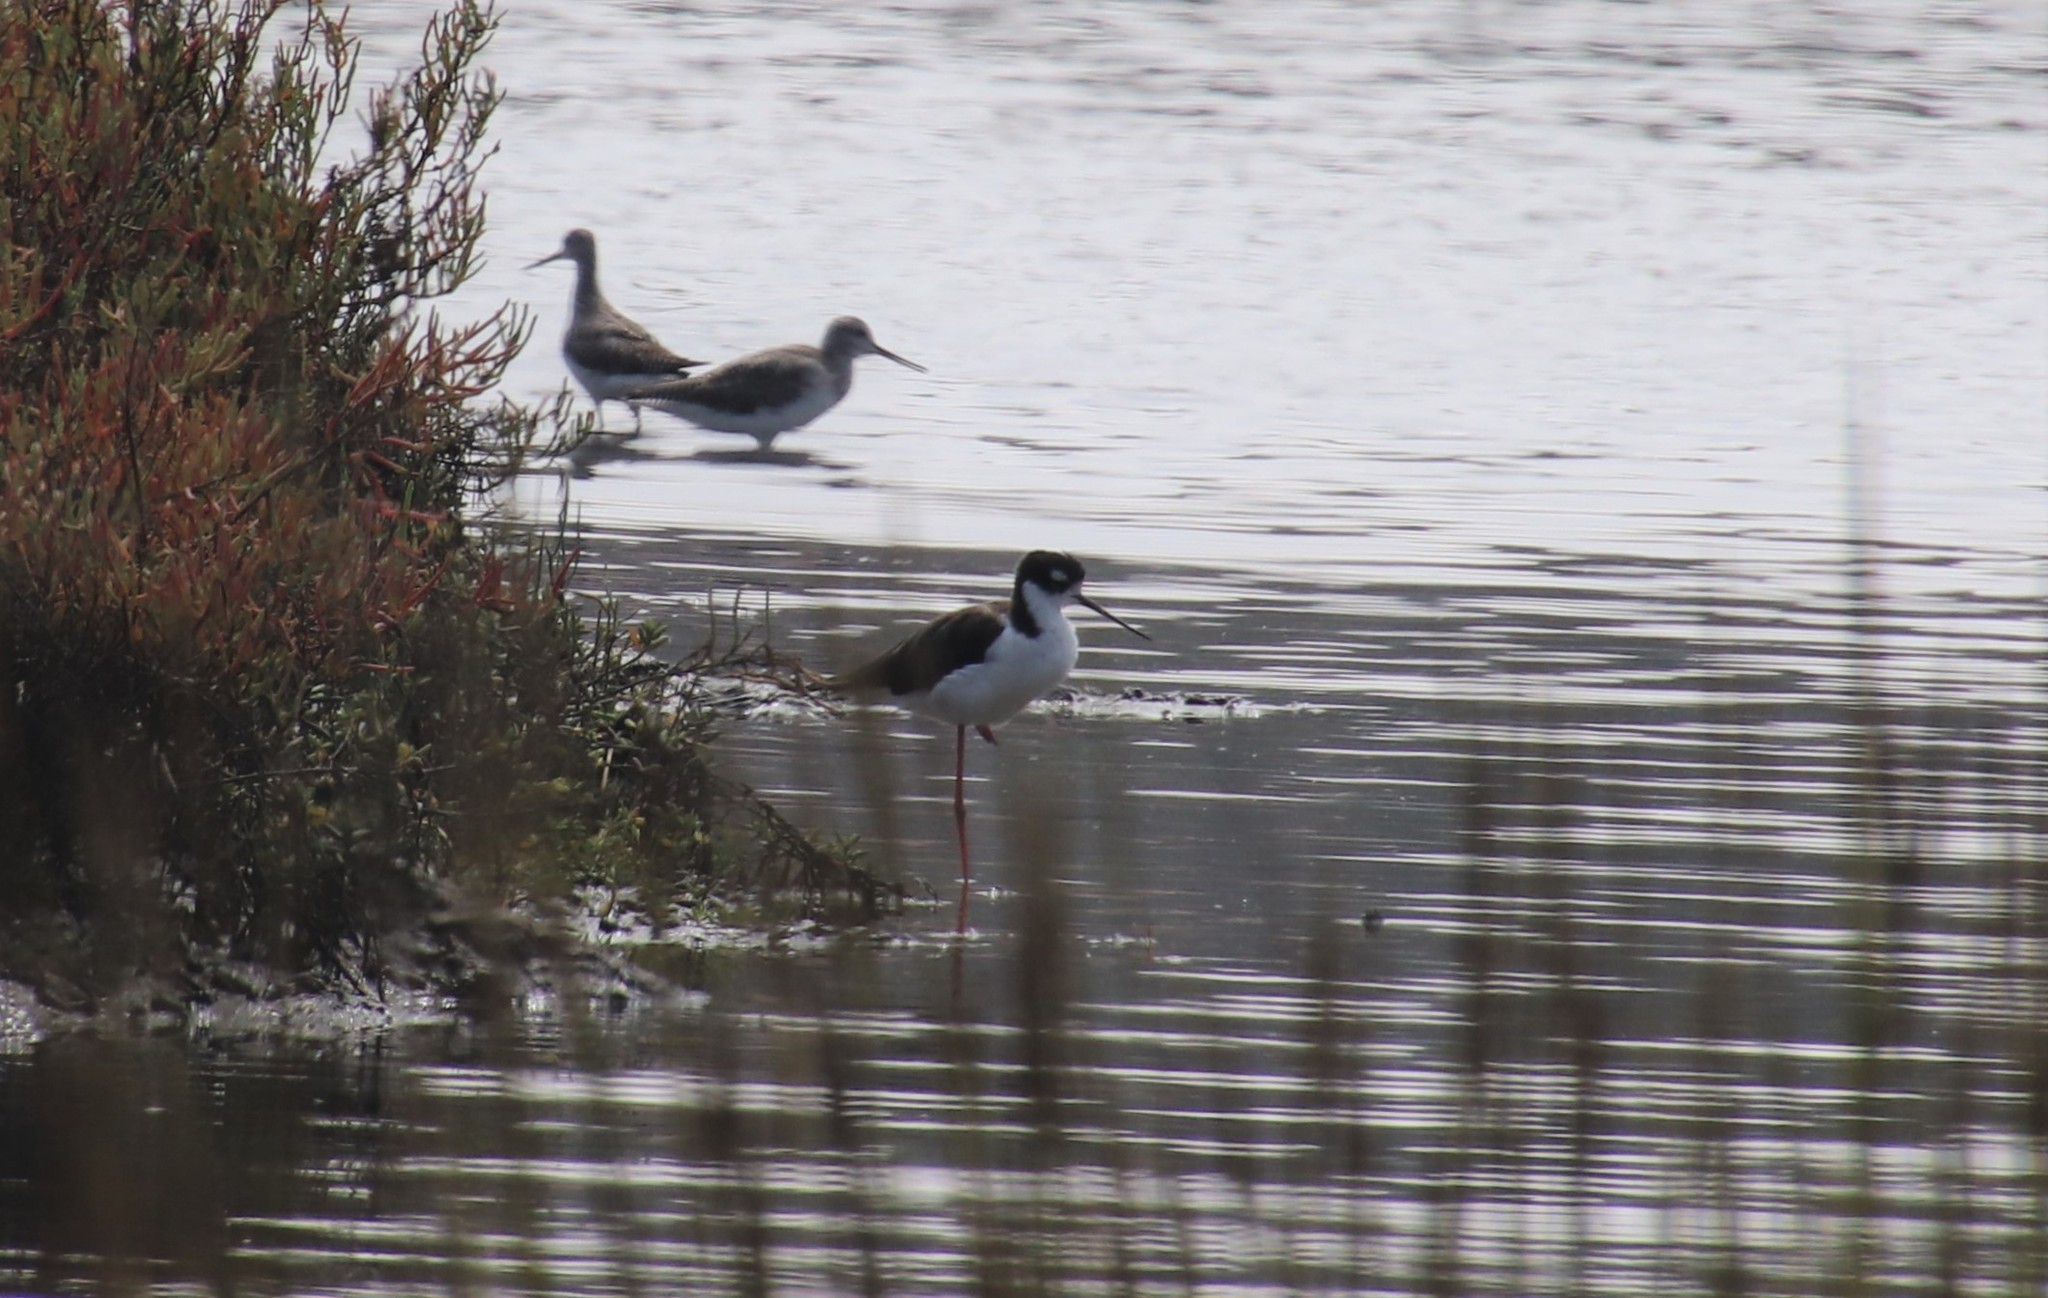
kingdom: Animalia
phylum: Chordata
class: Aves
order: Charadriiformes
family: Recurvirostridae
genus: Himantopus
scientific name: Himantopus mexicanus
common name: Black-necked stilt
